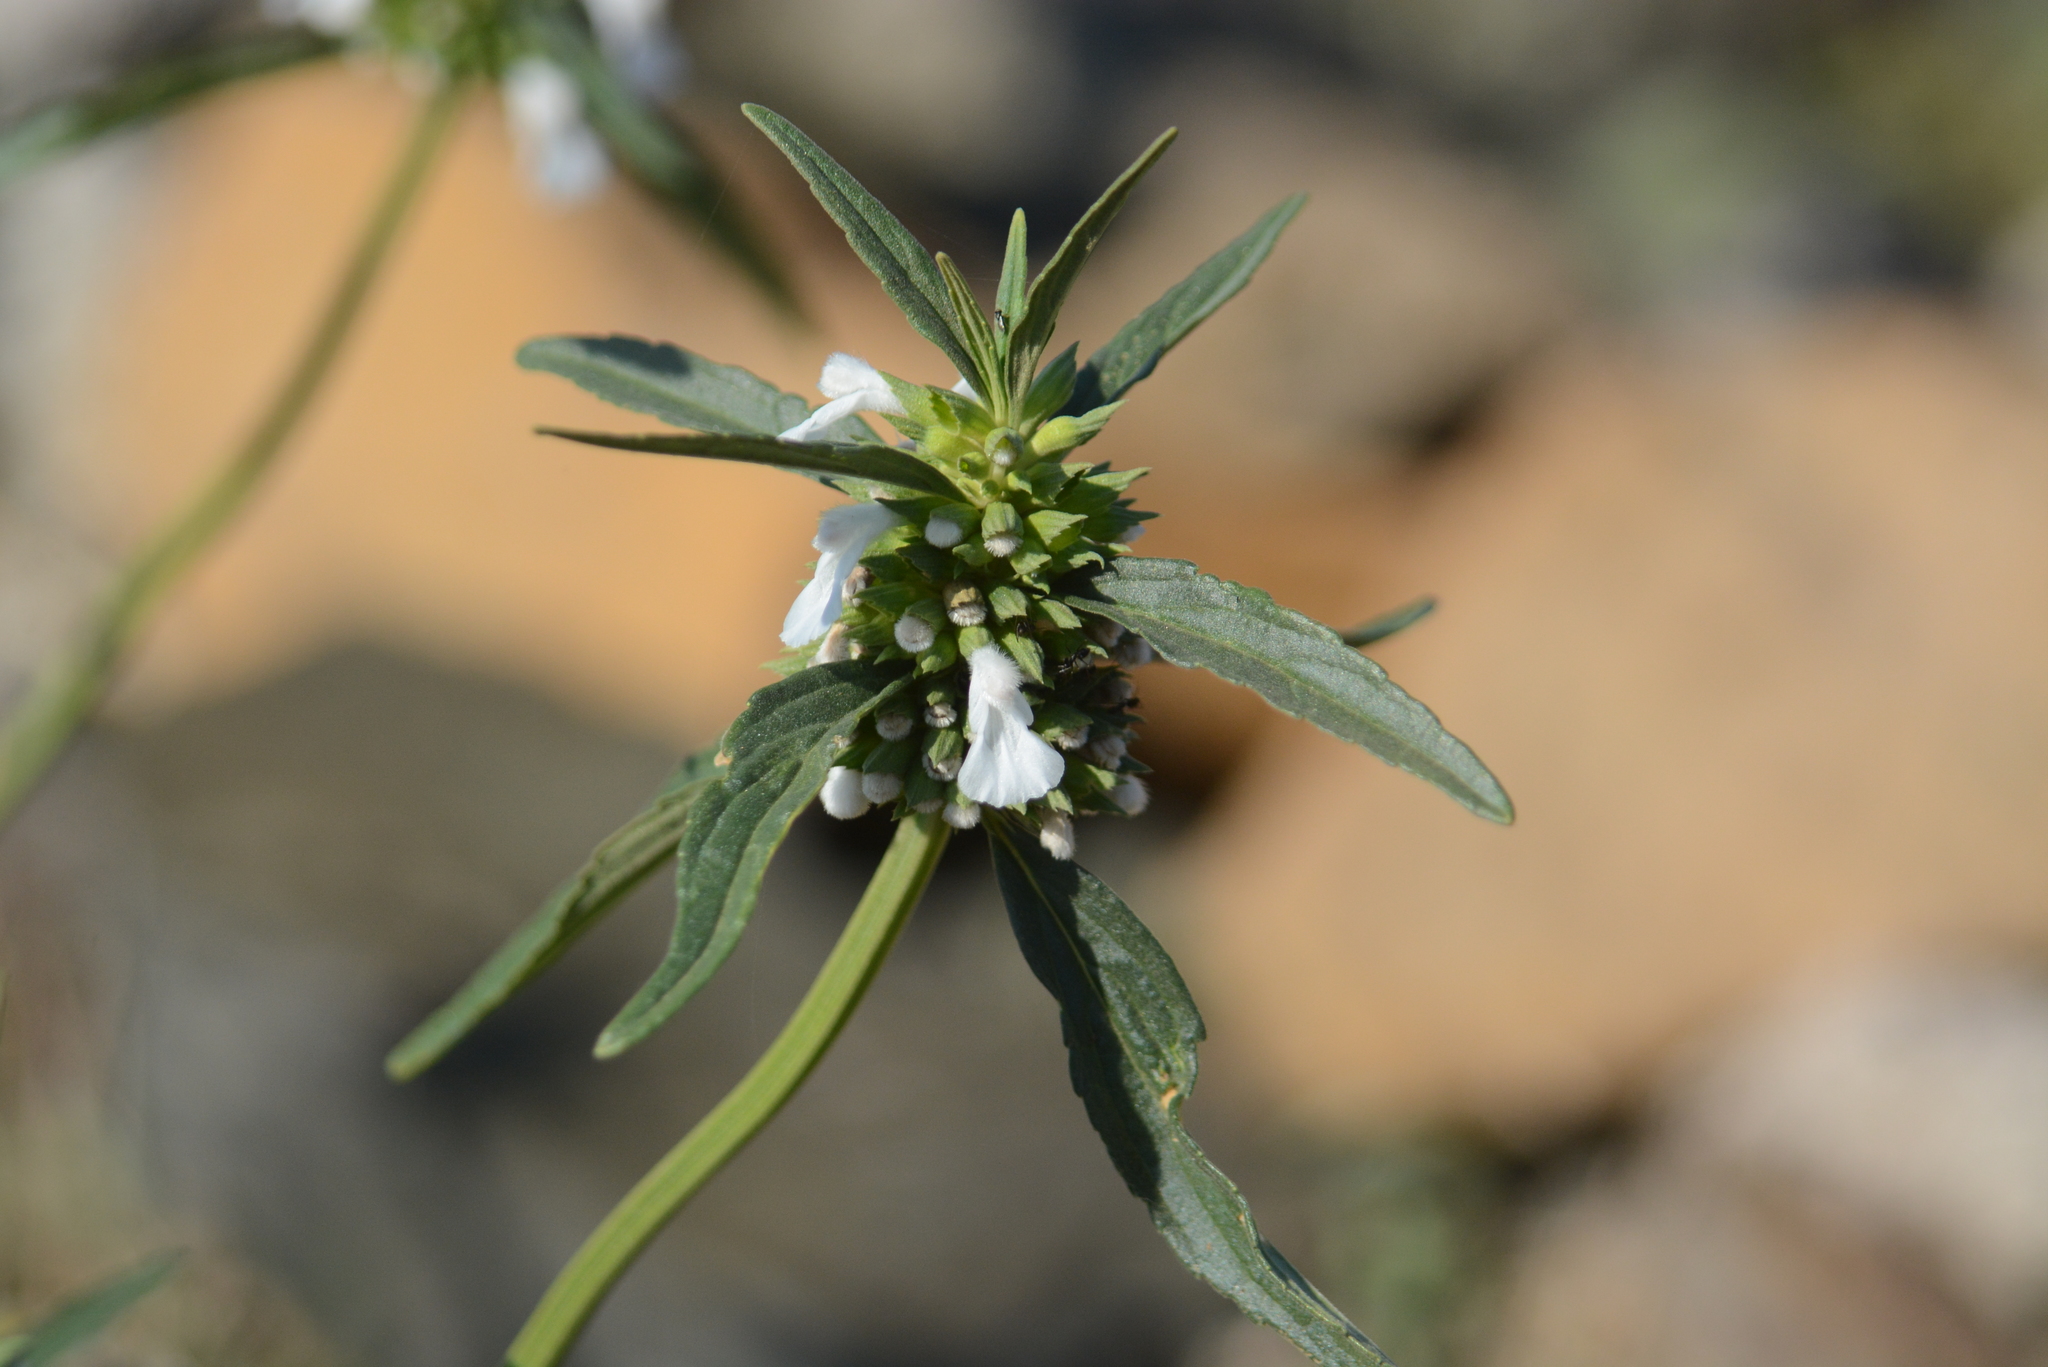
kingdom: Plantae
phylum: Tracheophyta
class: Magnoliopsida
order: Lamiales
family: Lamiaceae
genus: Leucas
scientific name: Leucas lavandulifolia
